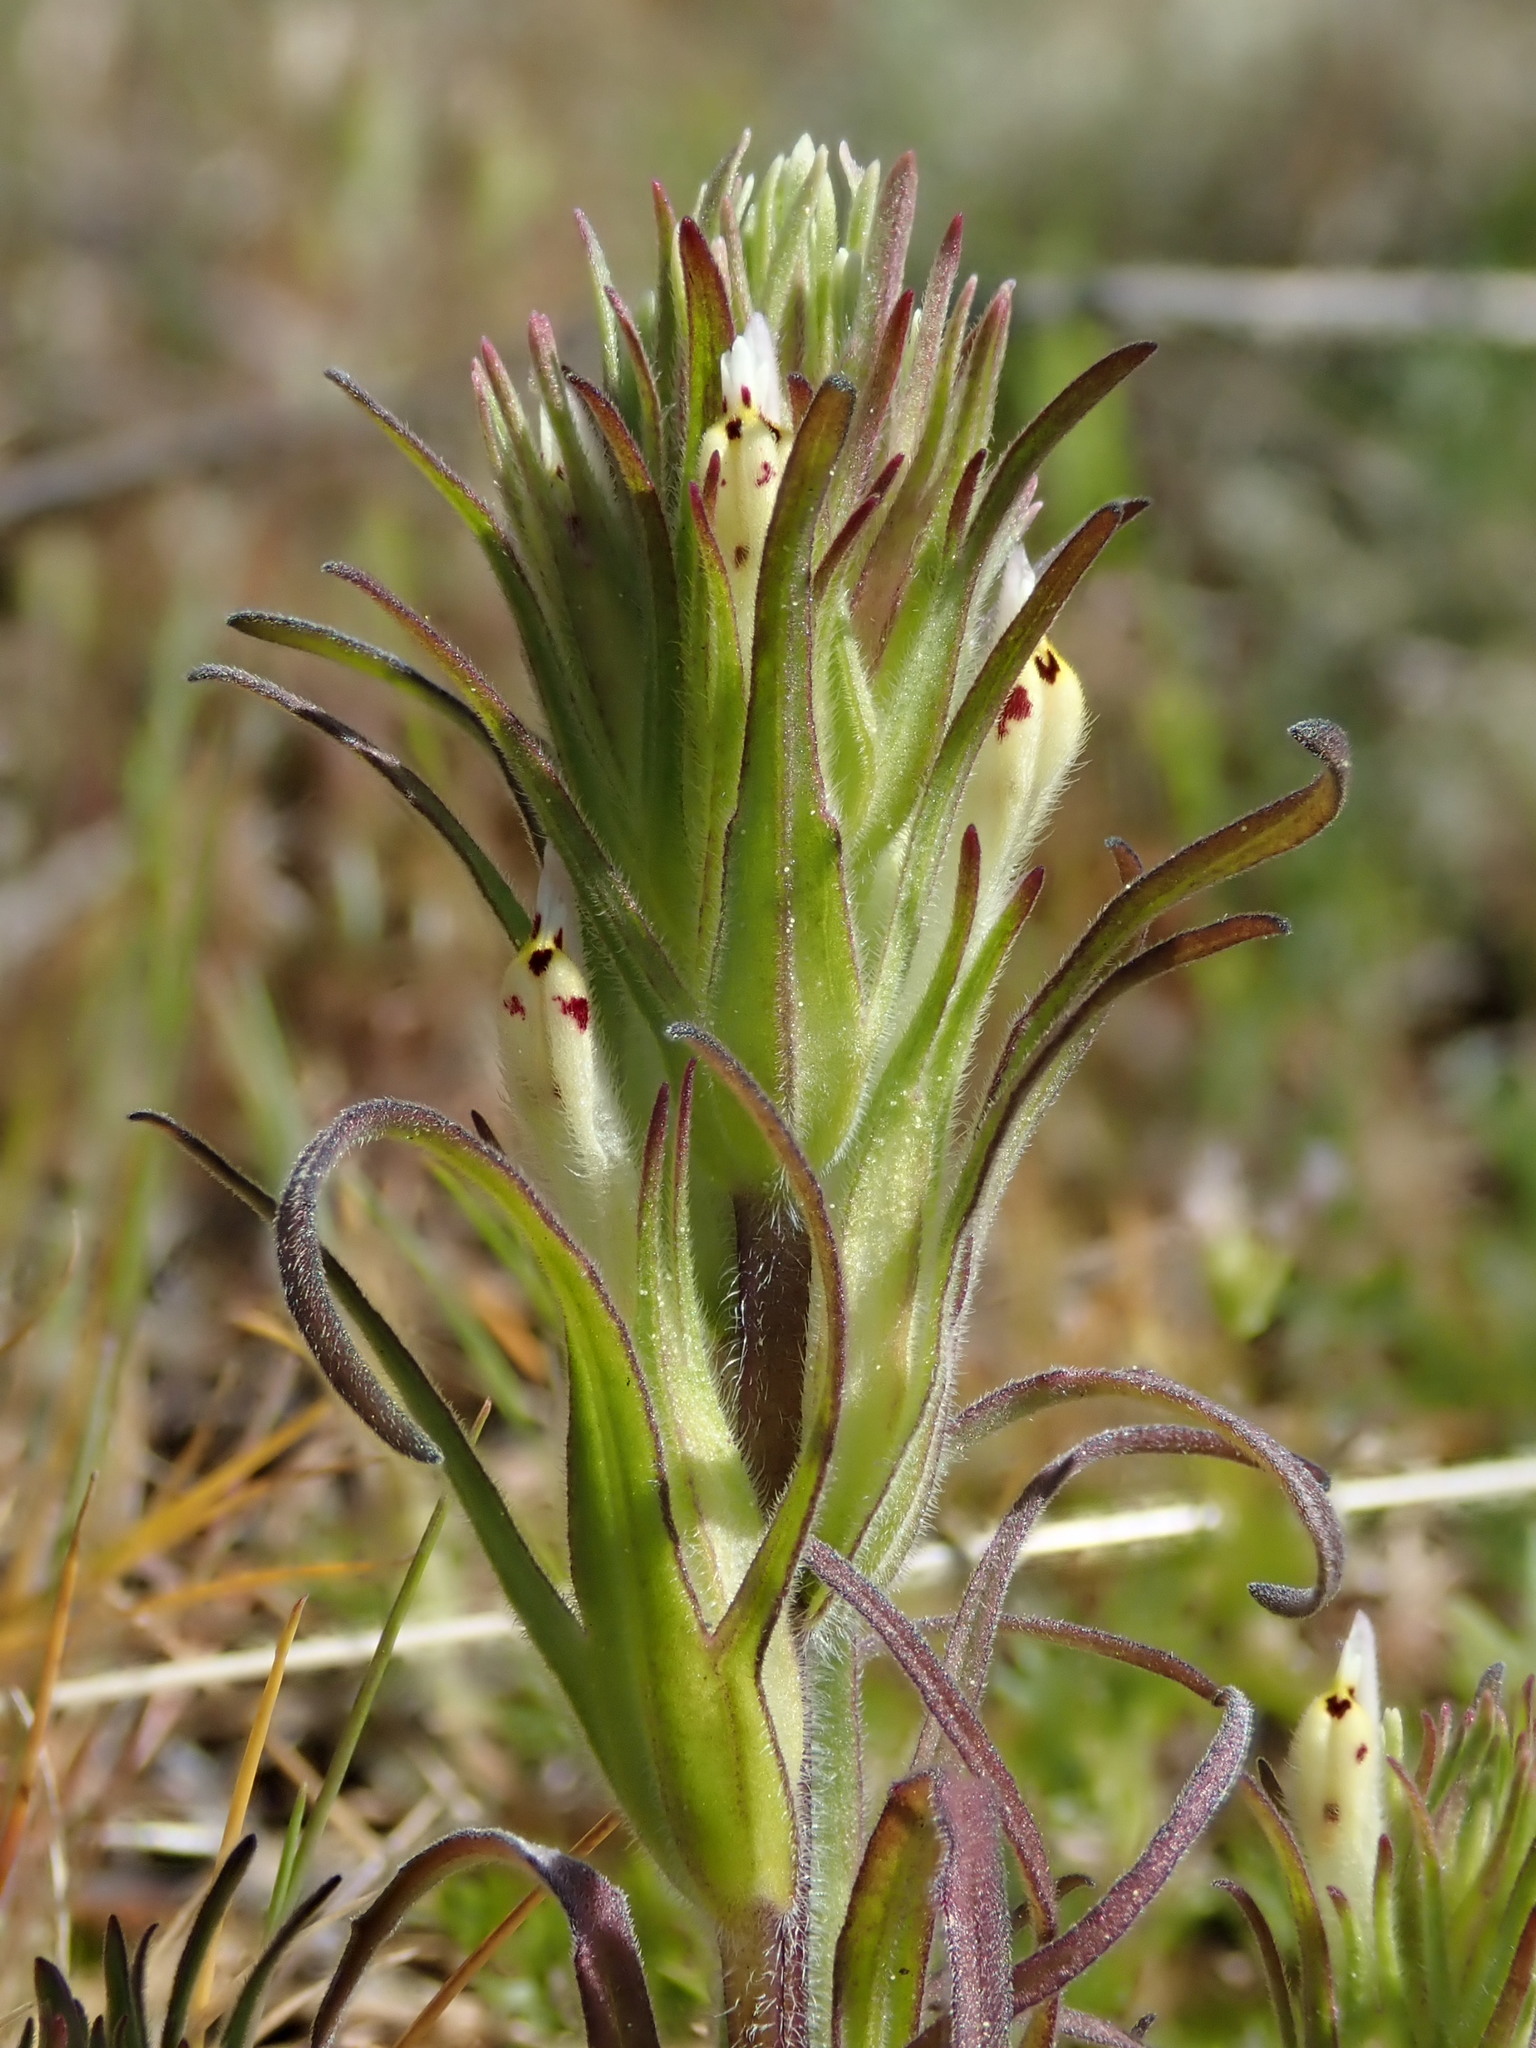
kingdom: Plantae
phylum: Tracheophyta
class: Magnoliopsida
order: Lamiales
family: Orobanchaceae
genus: Castilleja
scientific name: Castilleja attenuata
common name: Valley tassels
